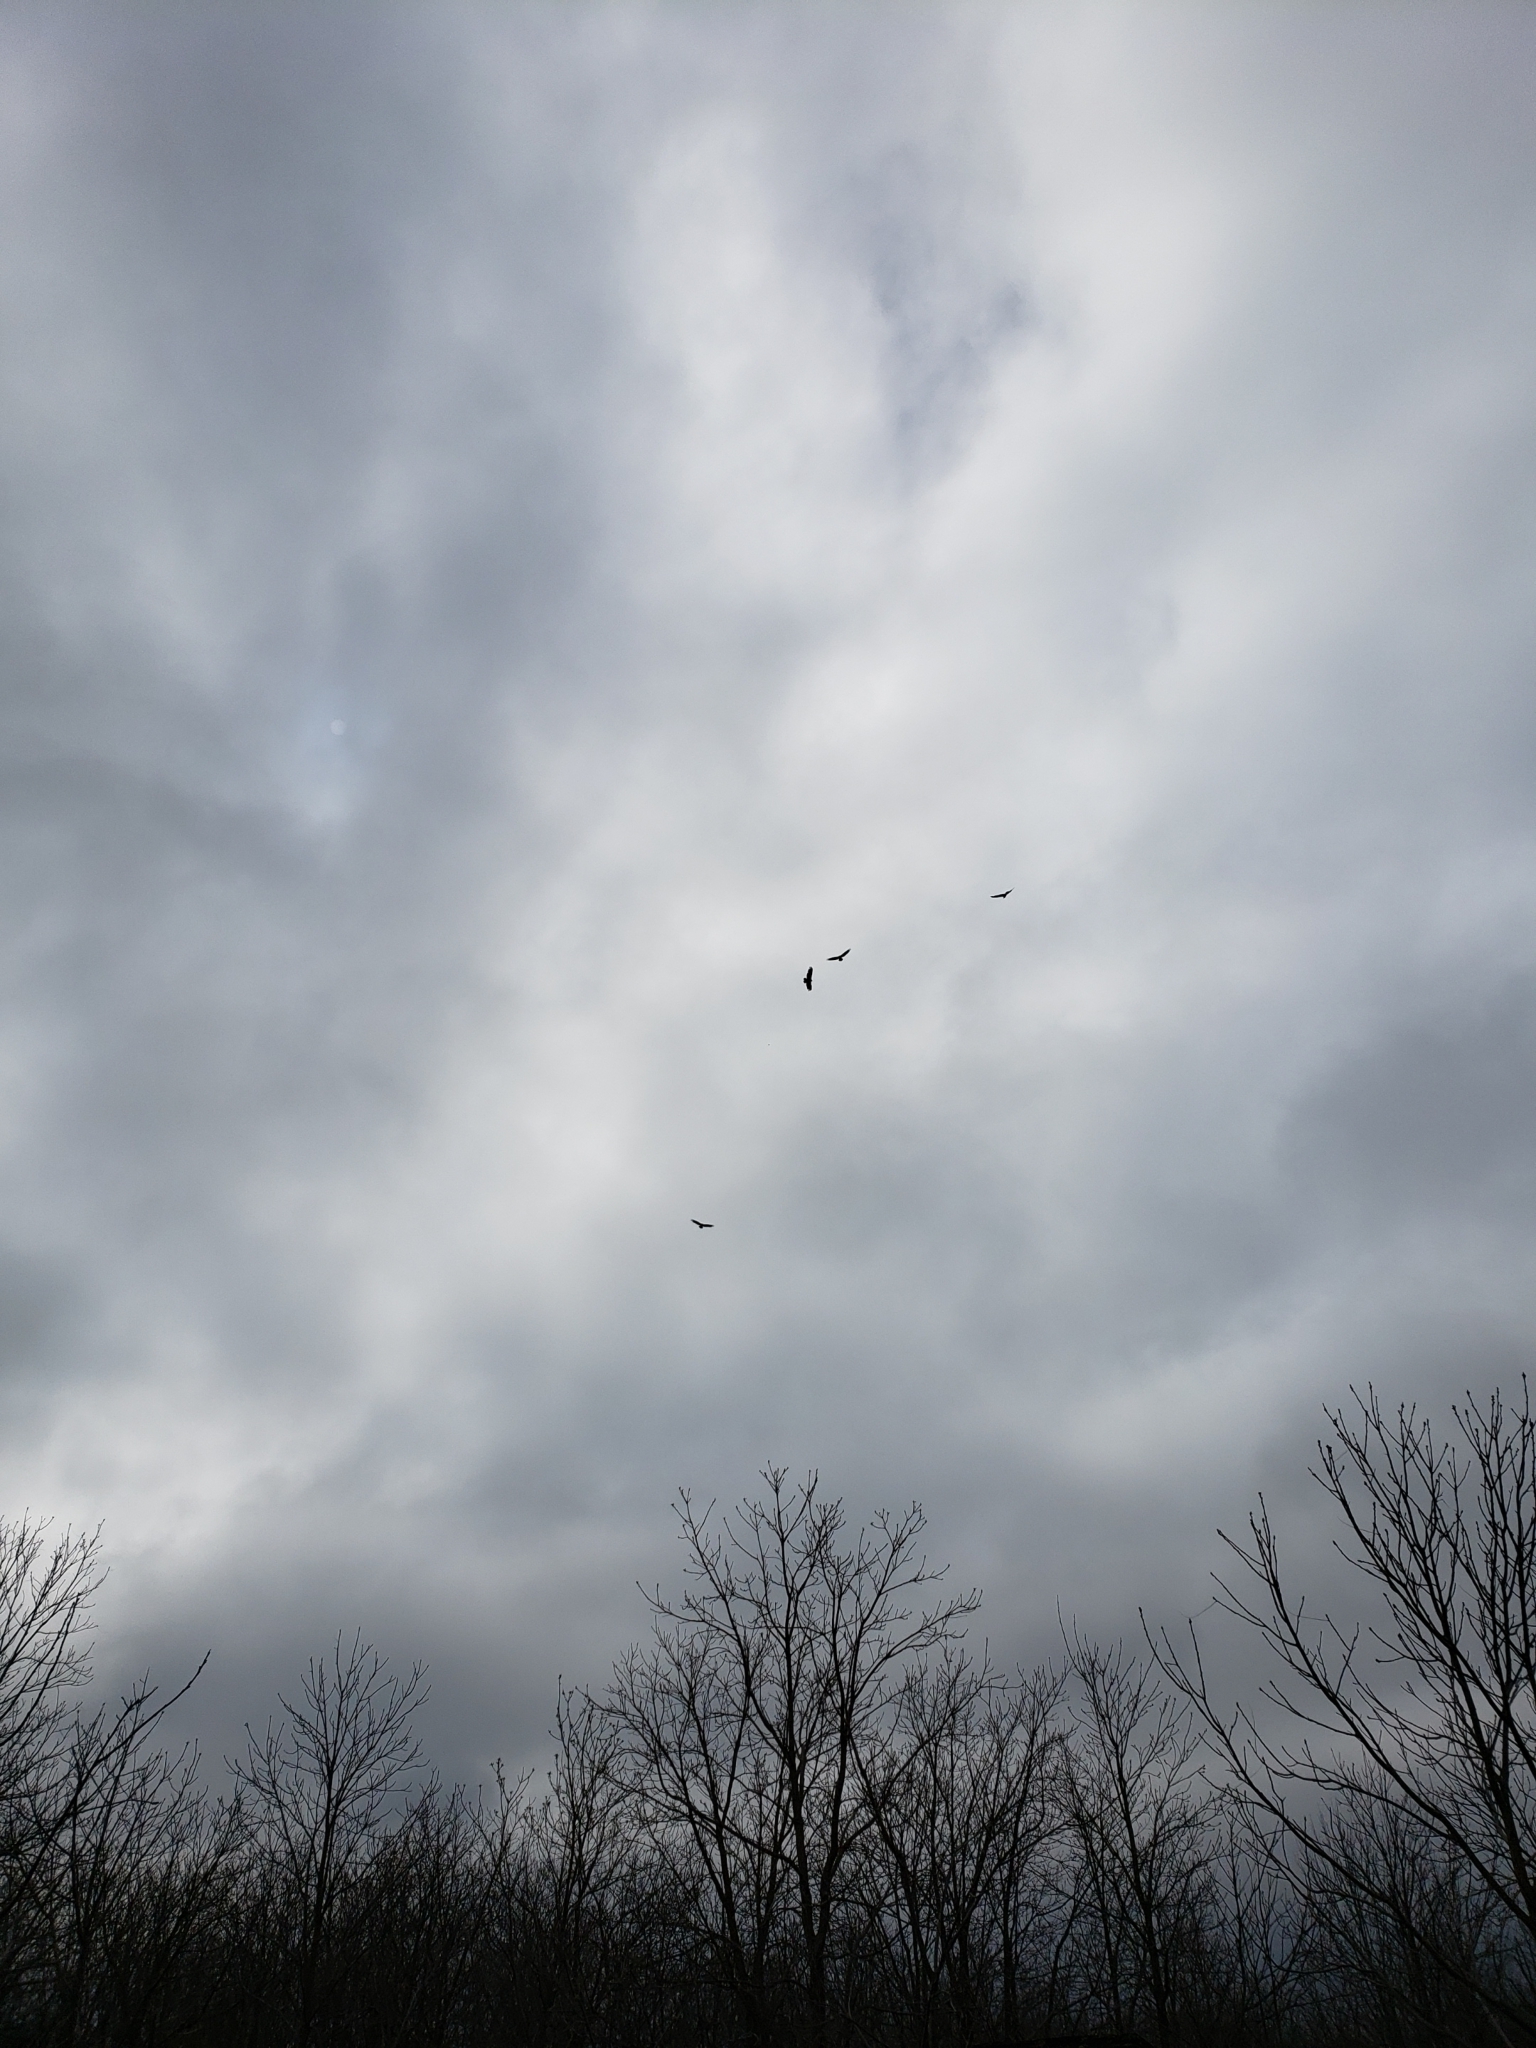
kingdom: Animalia
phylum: Chordata
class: Aves
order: Accipitriformes
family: Cathartidae
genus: Cathartes
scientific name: Cathartes aura
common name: Turkey vulture
